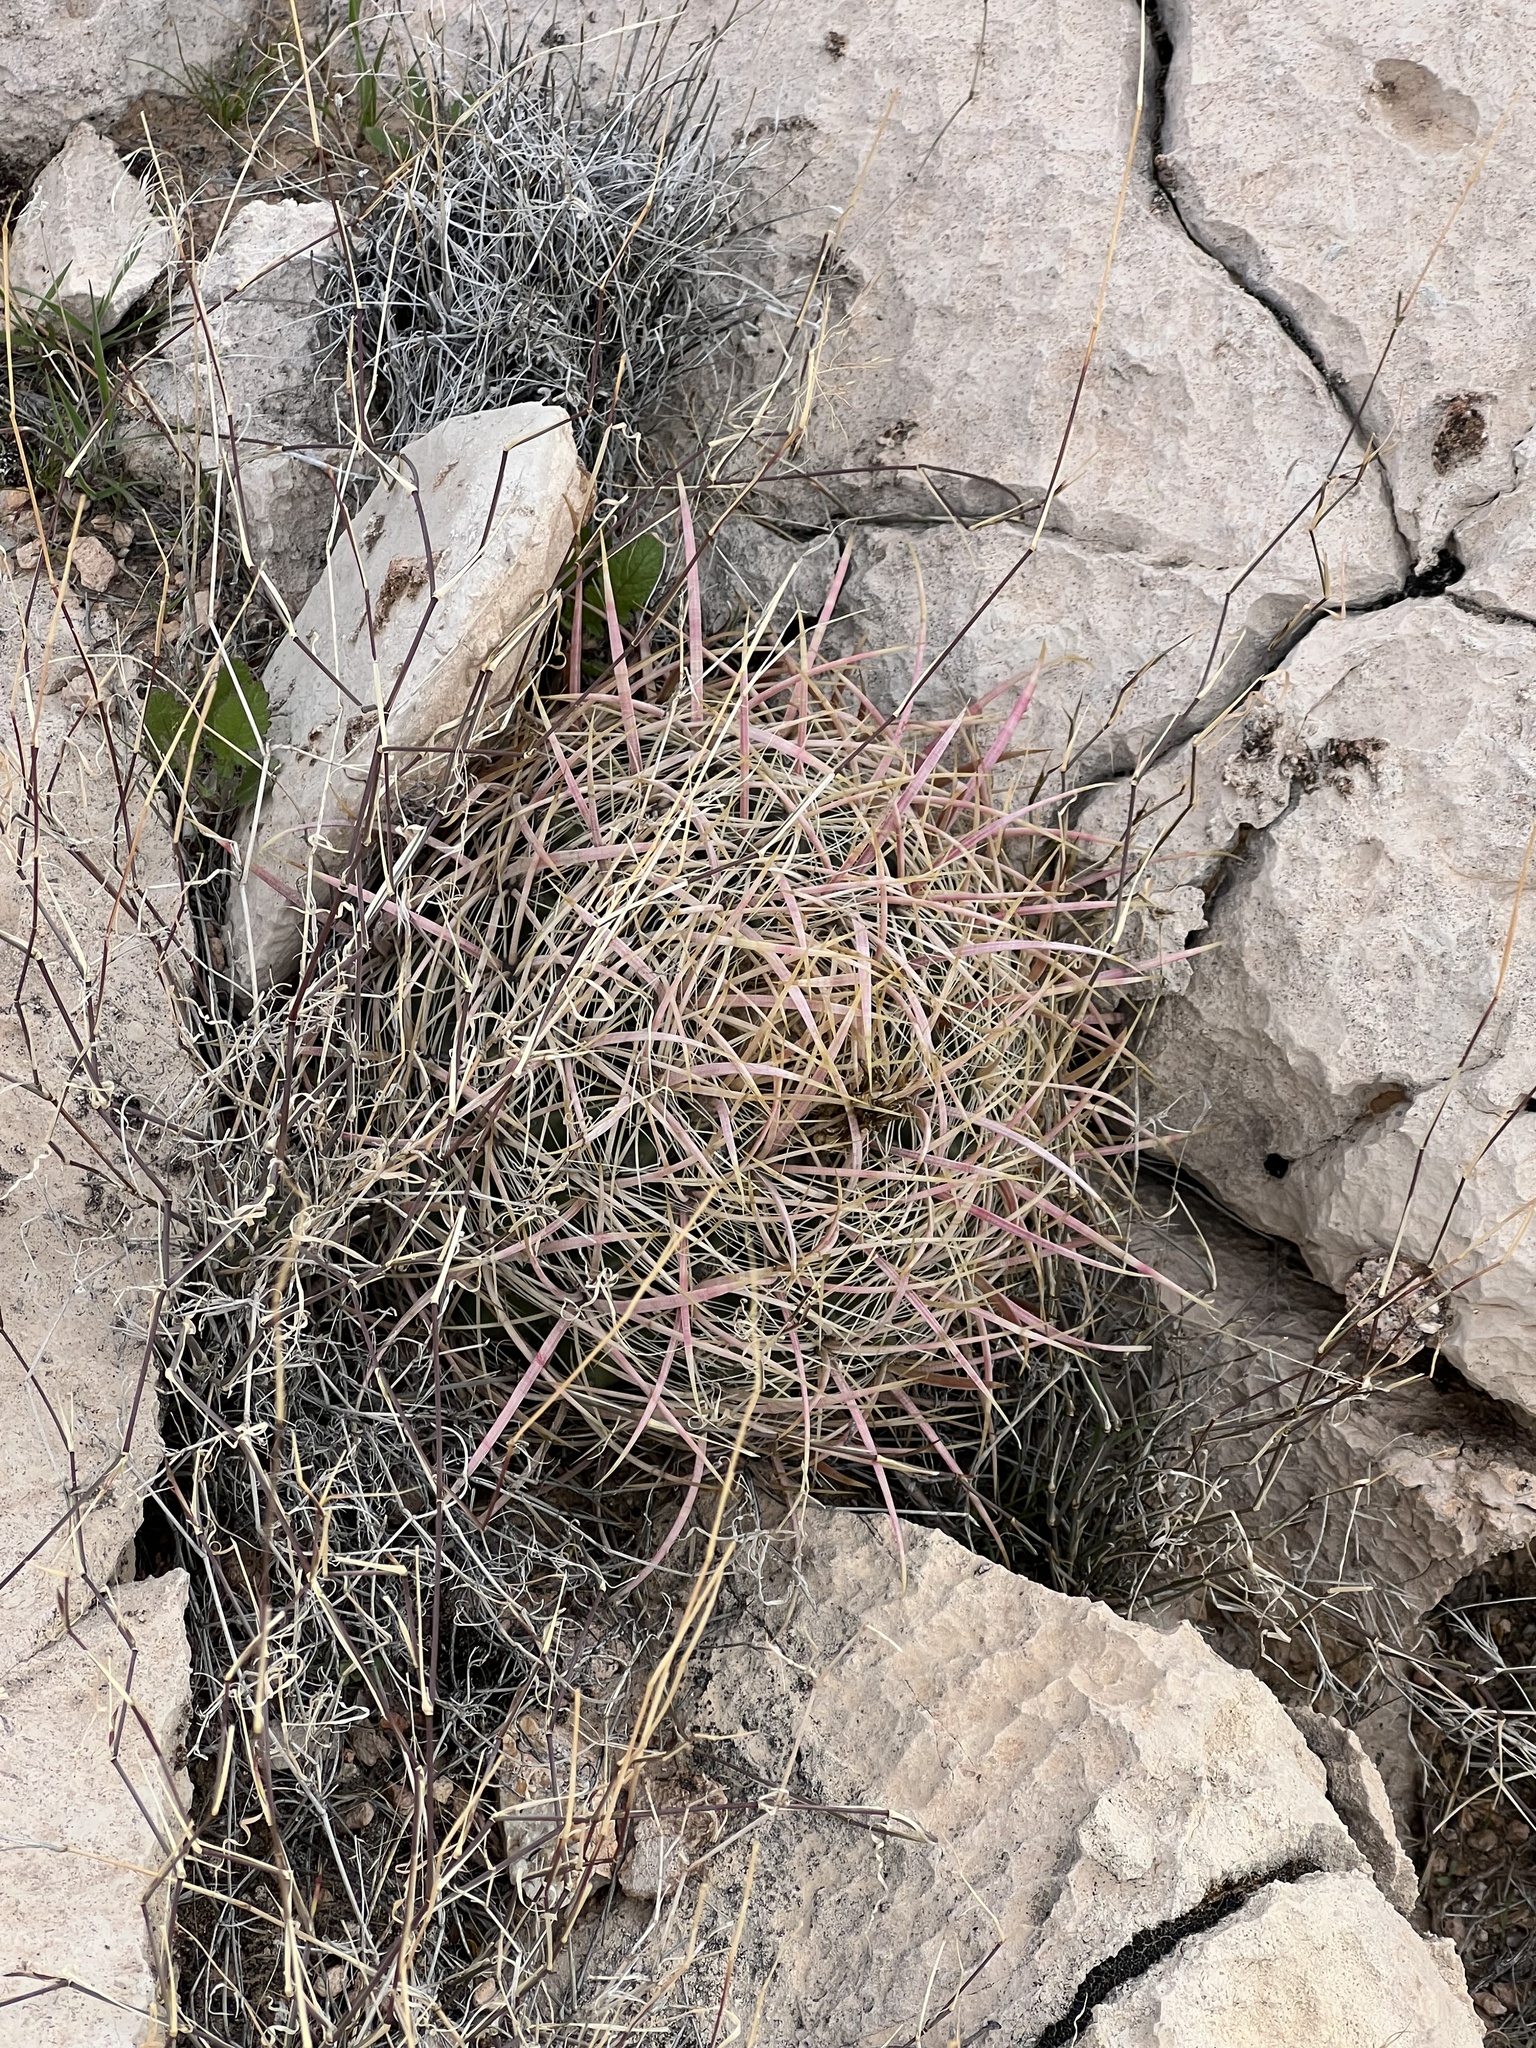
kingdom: Plantae
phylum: Tracheophyta
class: Magnoliopsida
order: Caryophyllales
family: Cactaceae
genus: Ferocactus
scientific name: Ferocactus cylindraceus
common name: California barrel cactus
